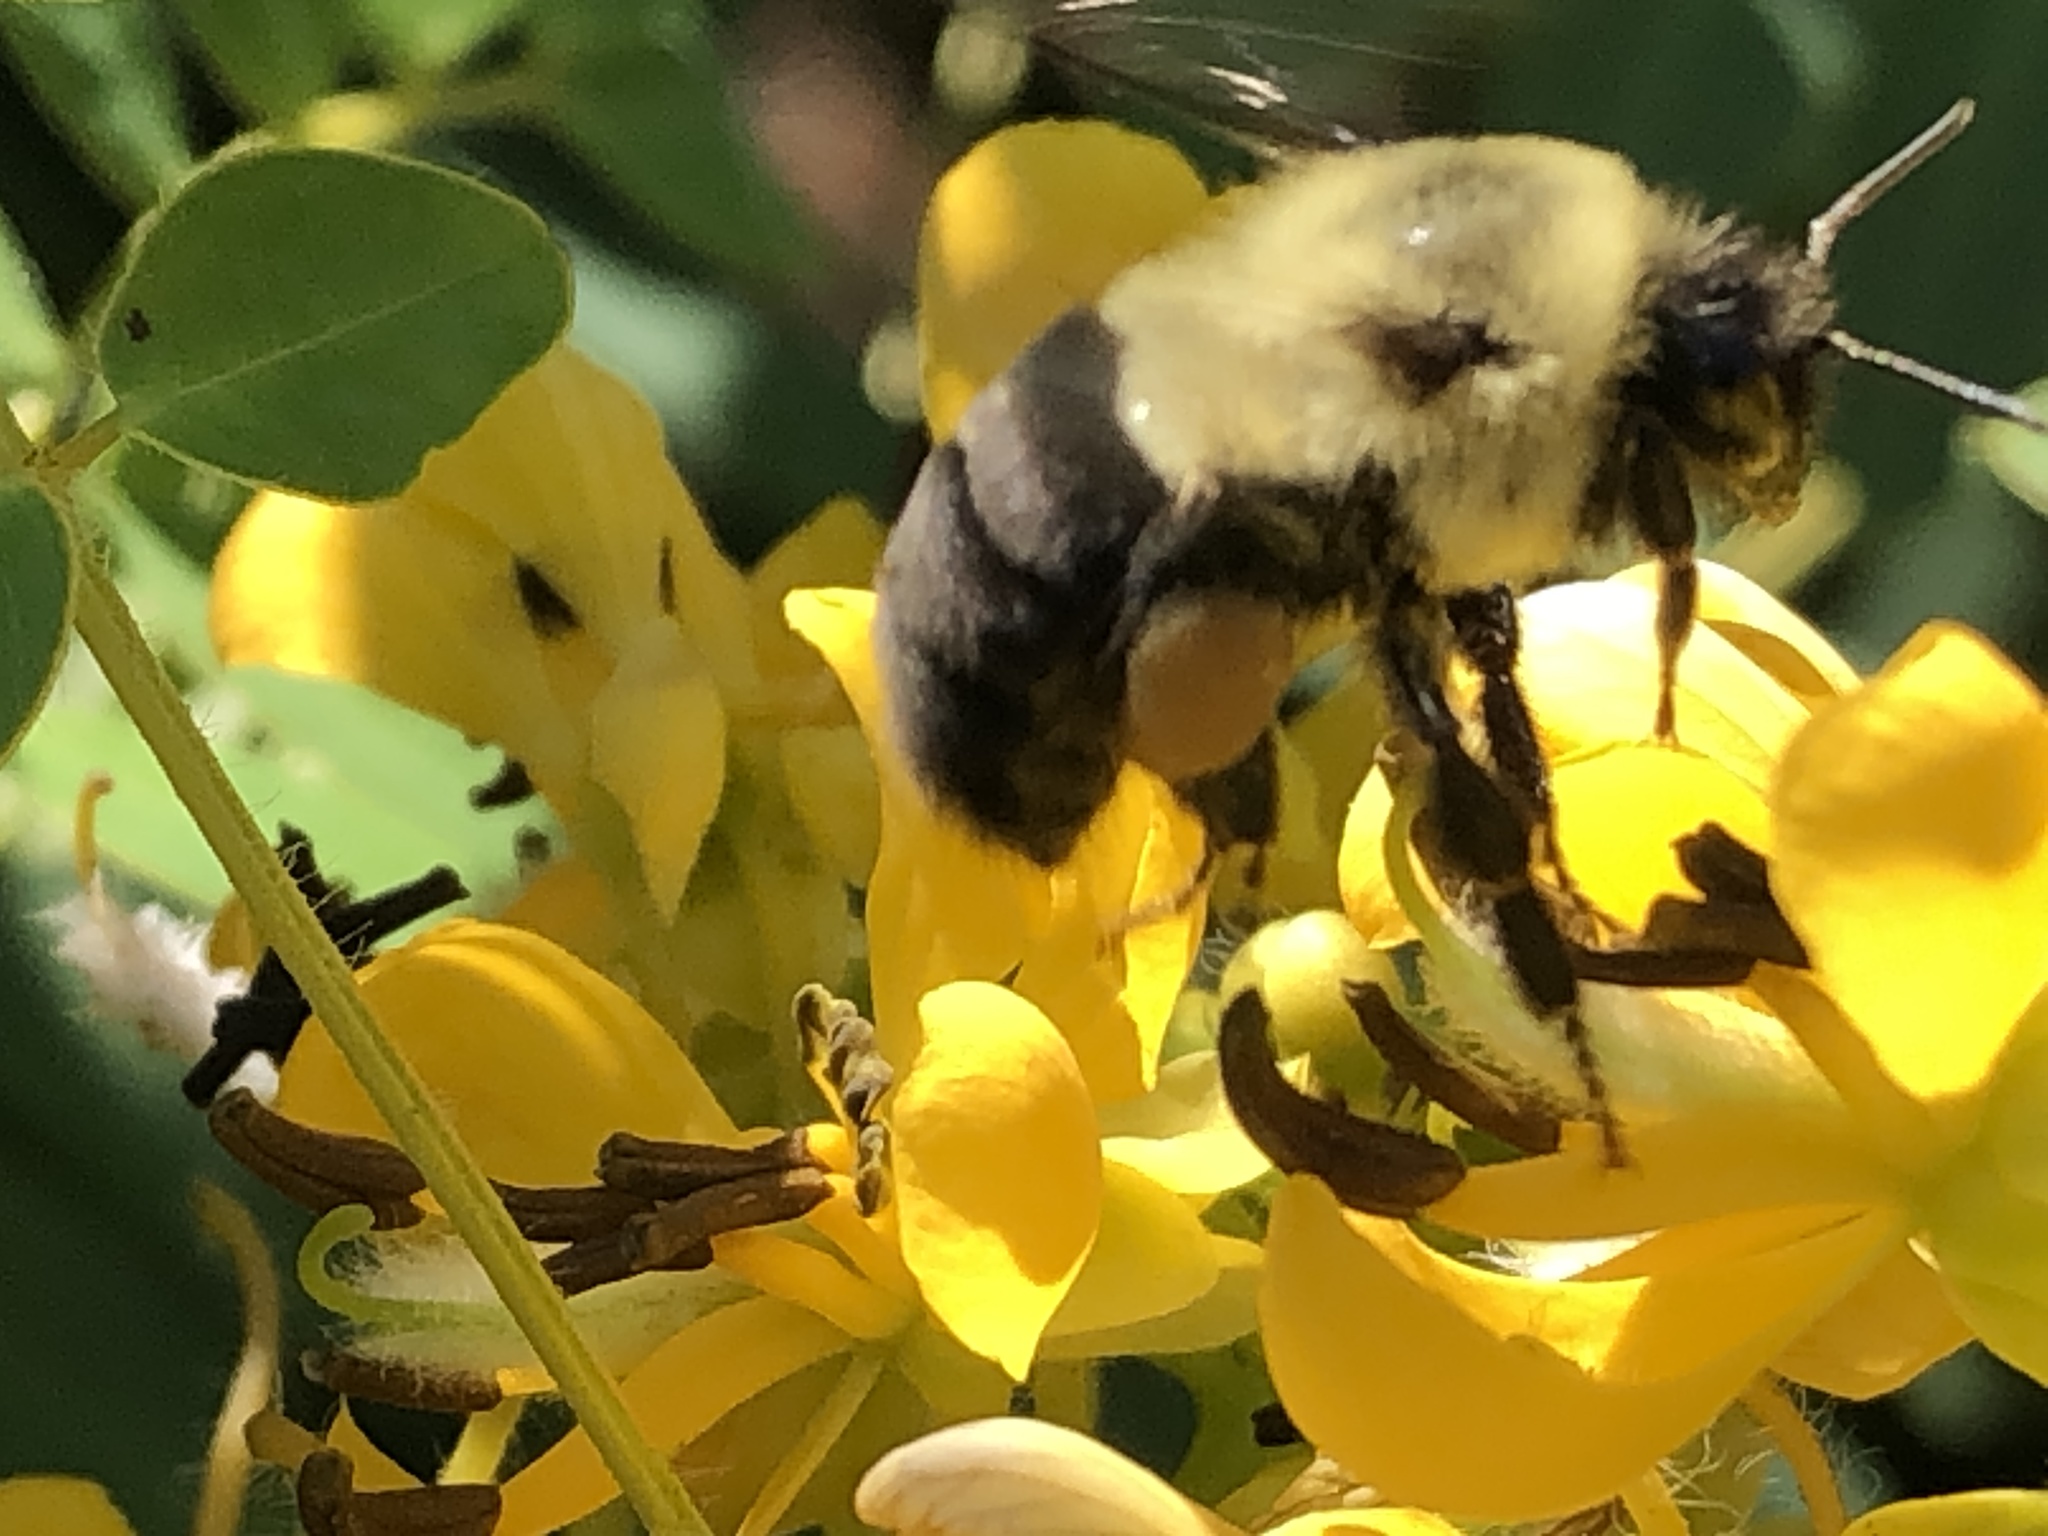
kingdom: Animalia
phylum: Arthropoda
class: Insecta
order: Hymenoptera
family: Apidae
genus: Bombus
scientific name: Bombus impatiens
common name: Common eastern bumble bee
